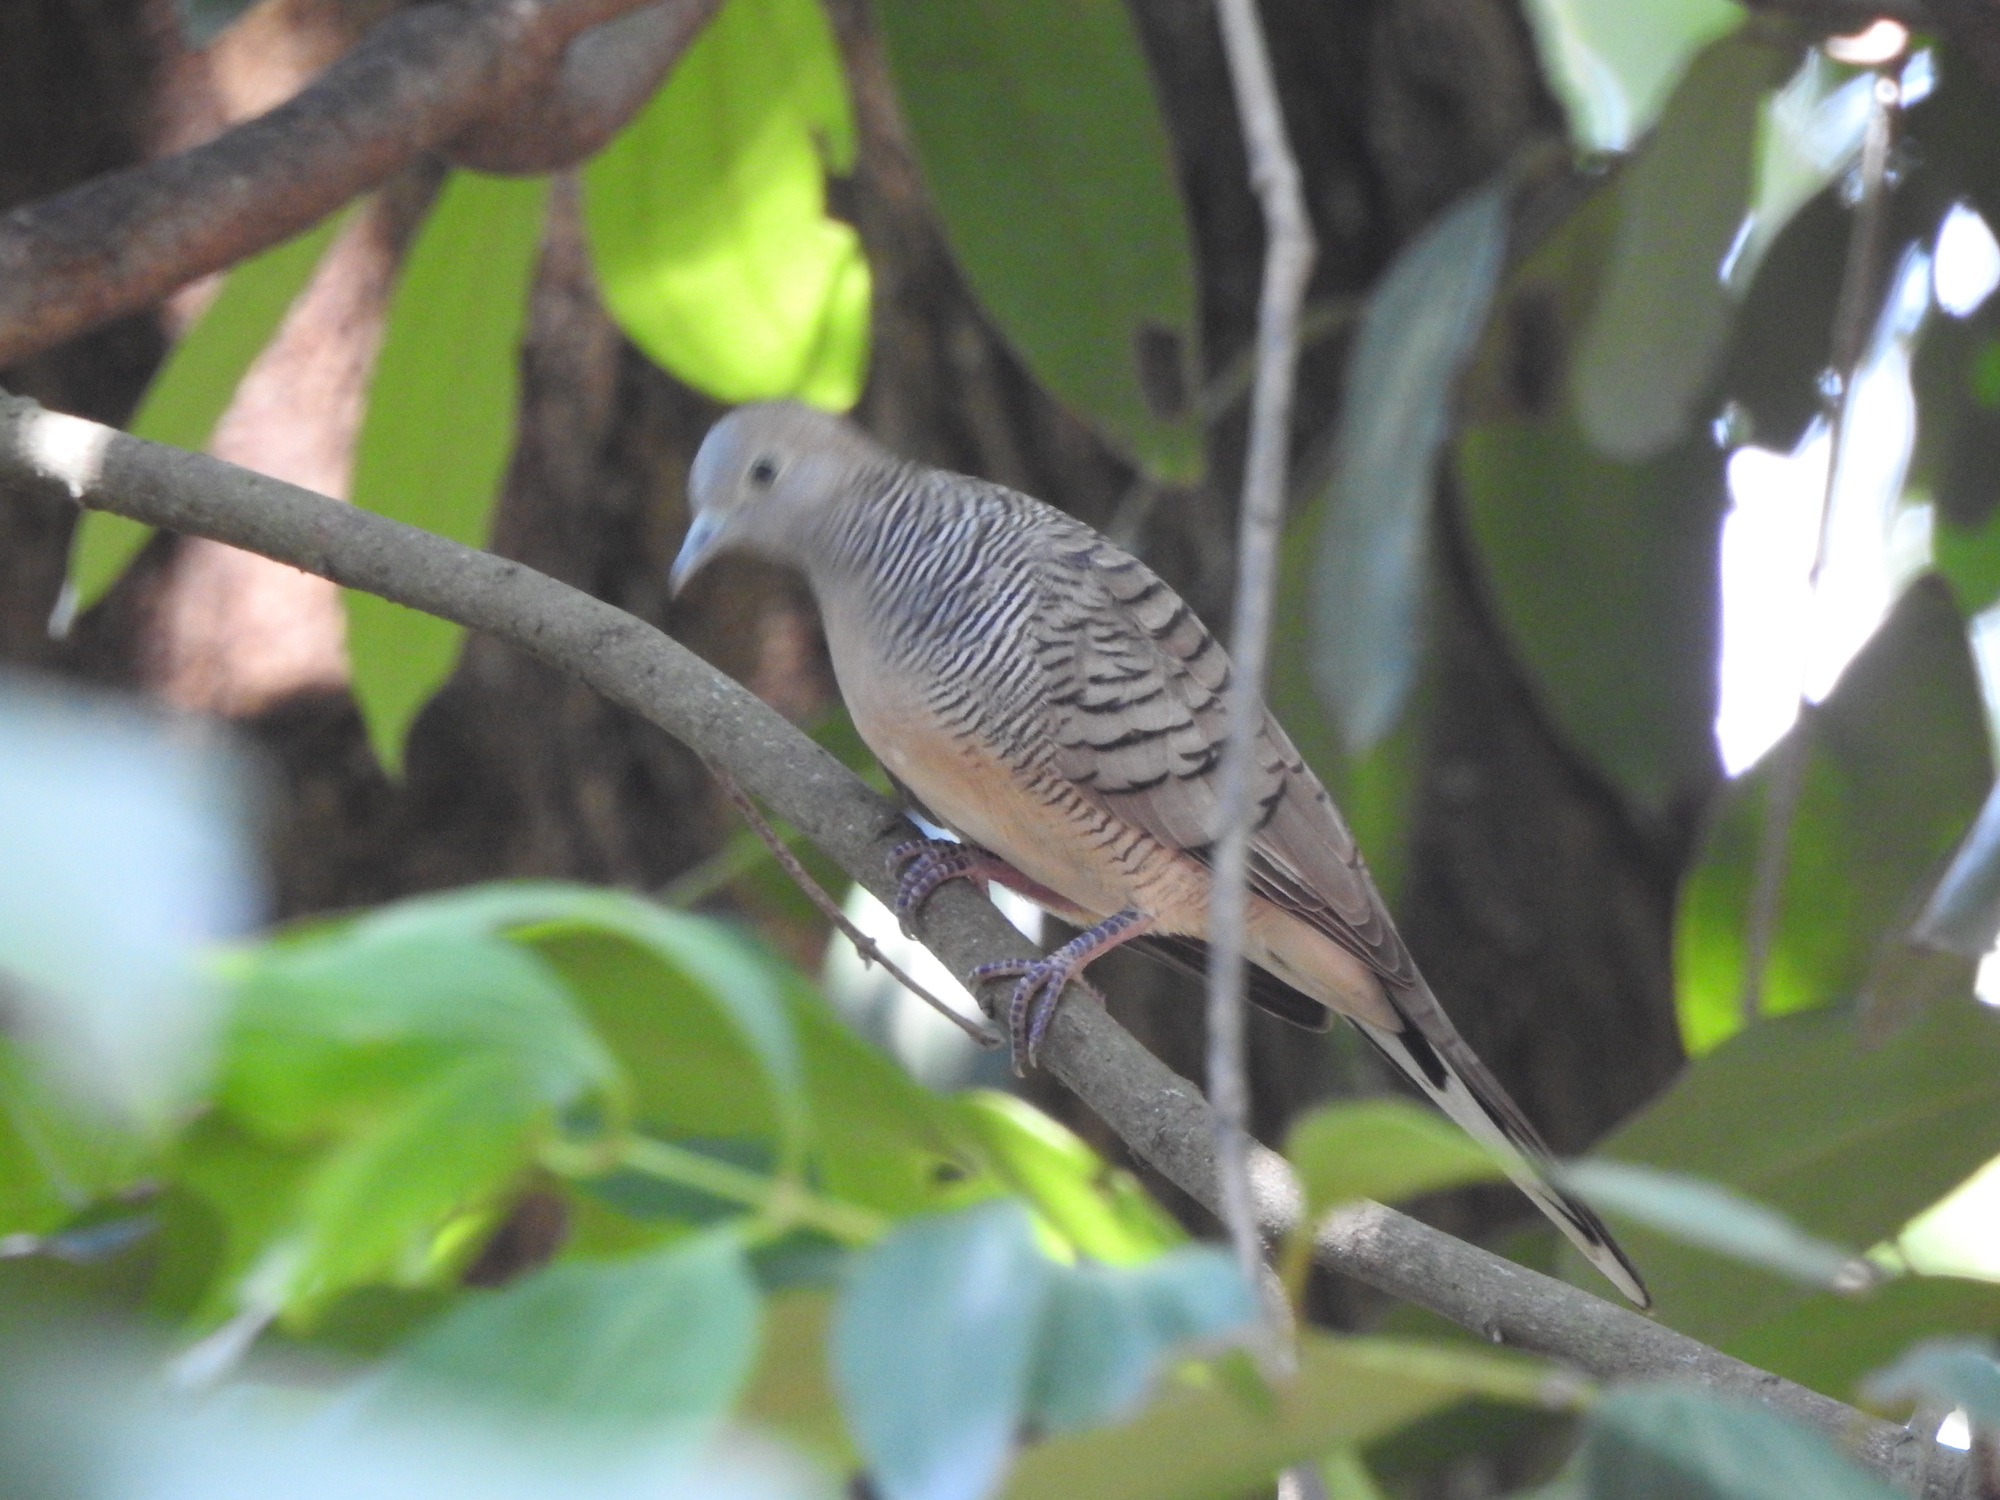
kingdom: Animalia
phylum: Chordata
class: Aves
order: Columbiformes
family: Columbidae
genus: Geopelia
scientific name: Geopelia striata
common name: Zebra dove
